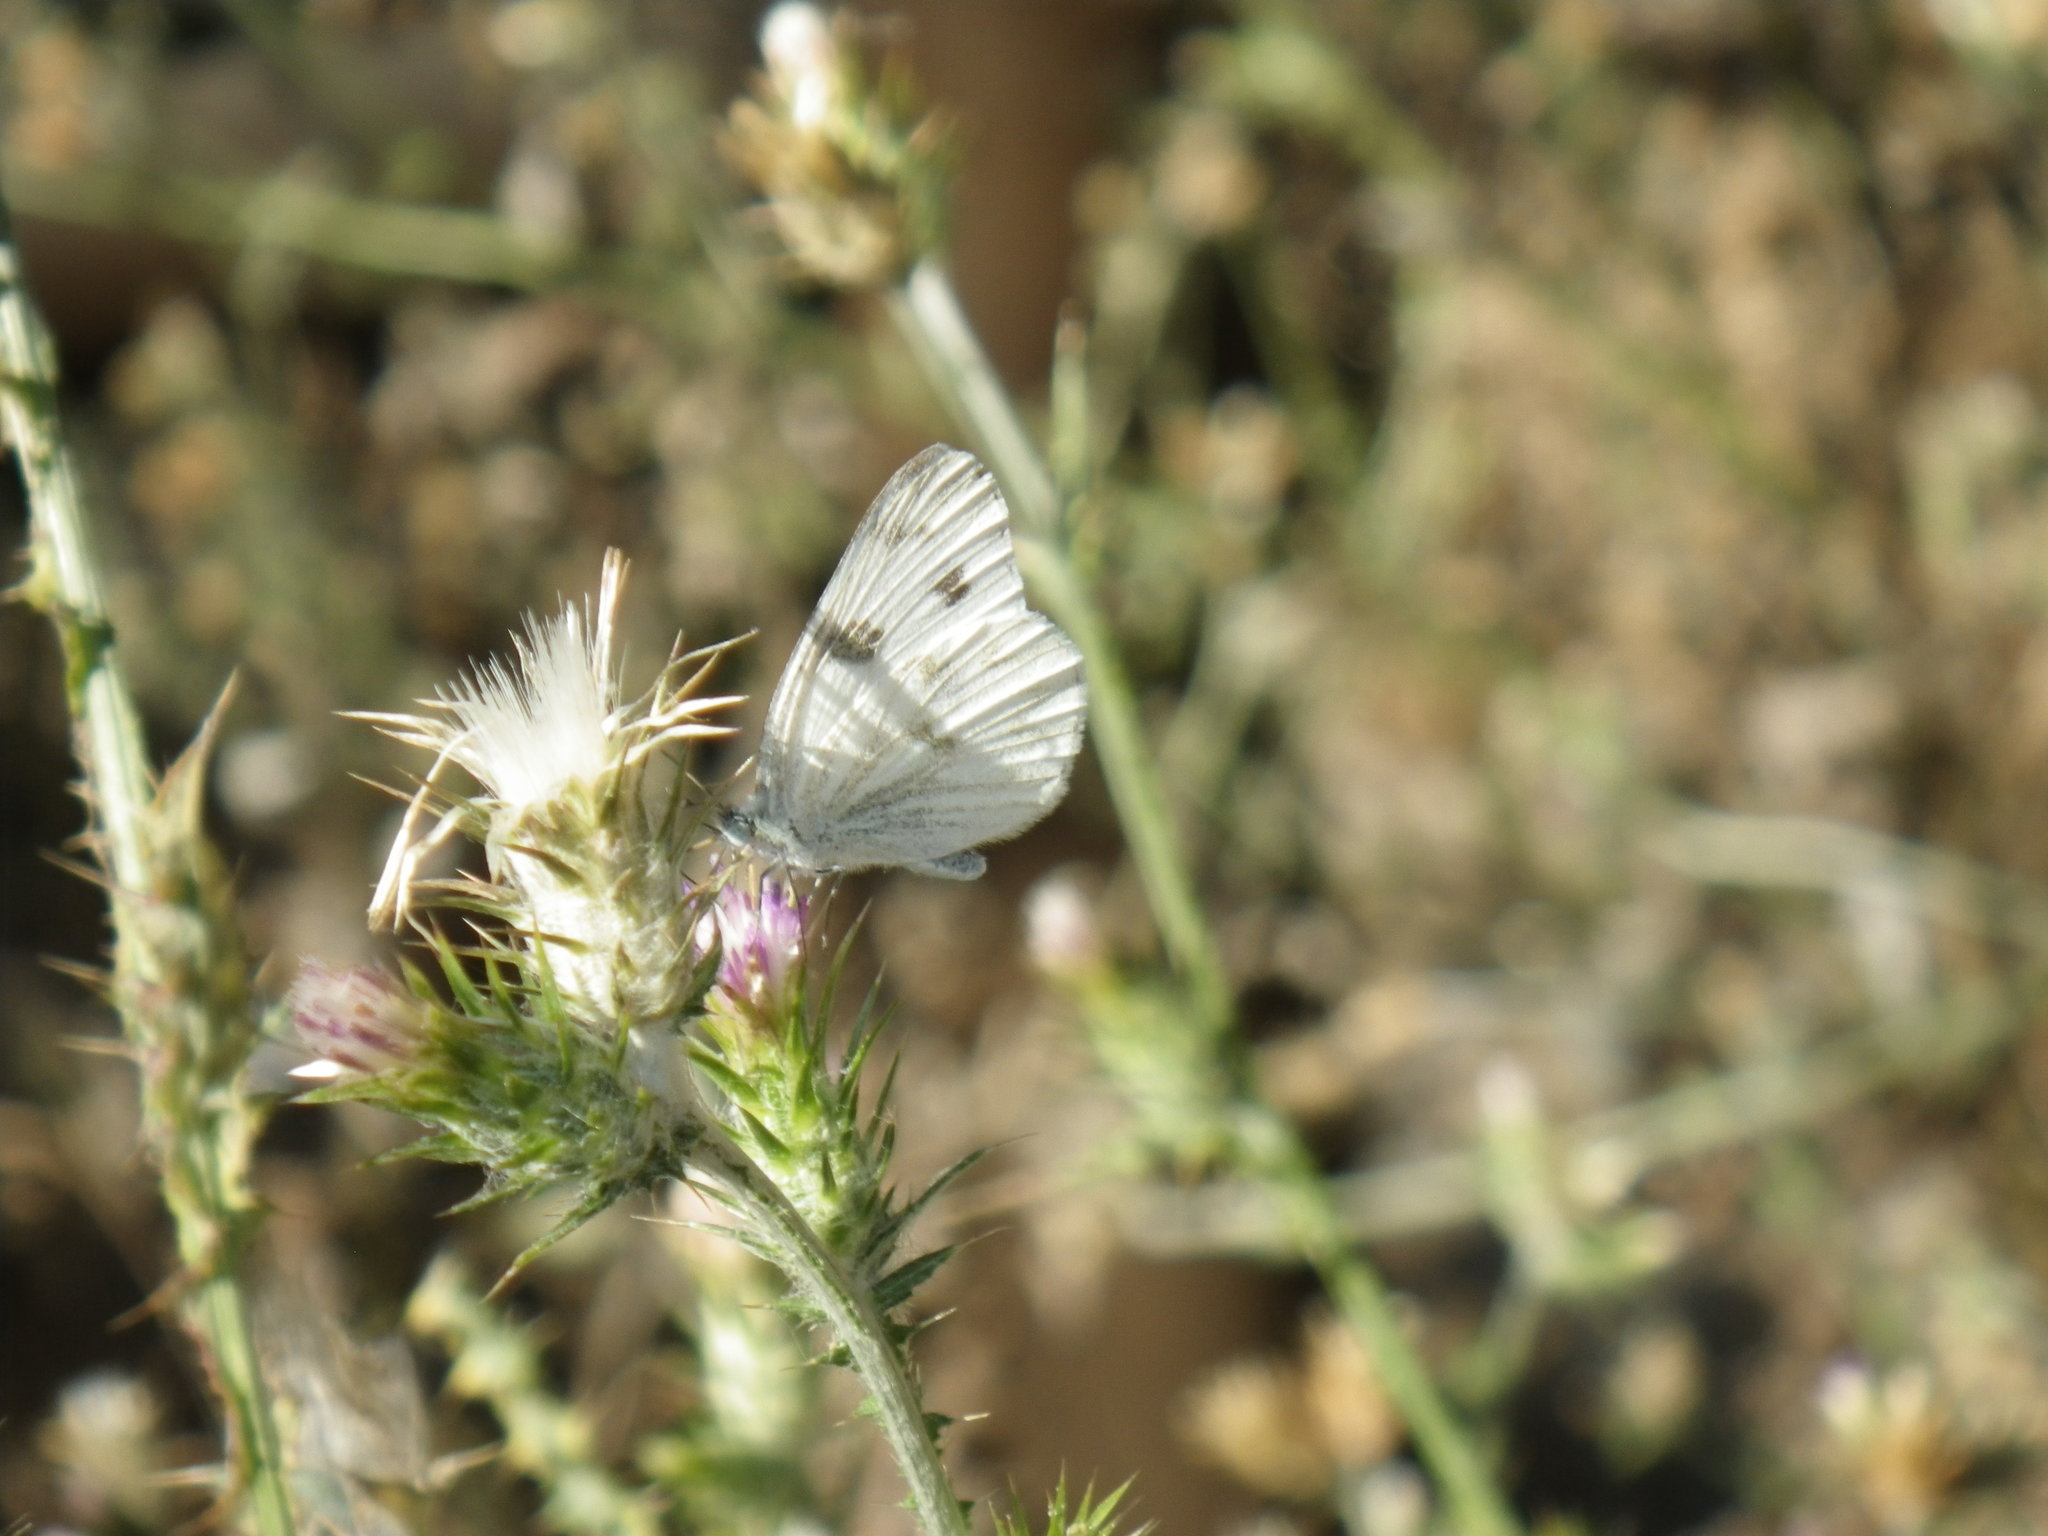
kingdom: Animalia
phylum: Arthropoda
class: Insecta
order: Lepidoptera
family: Pieridae
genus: Pontia
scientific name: Pontia protodice
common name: Checkered white
